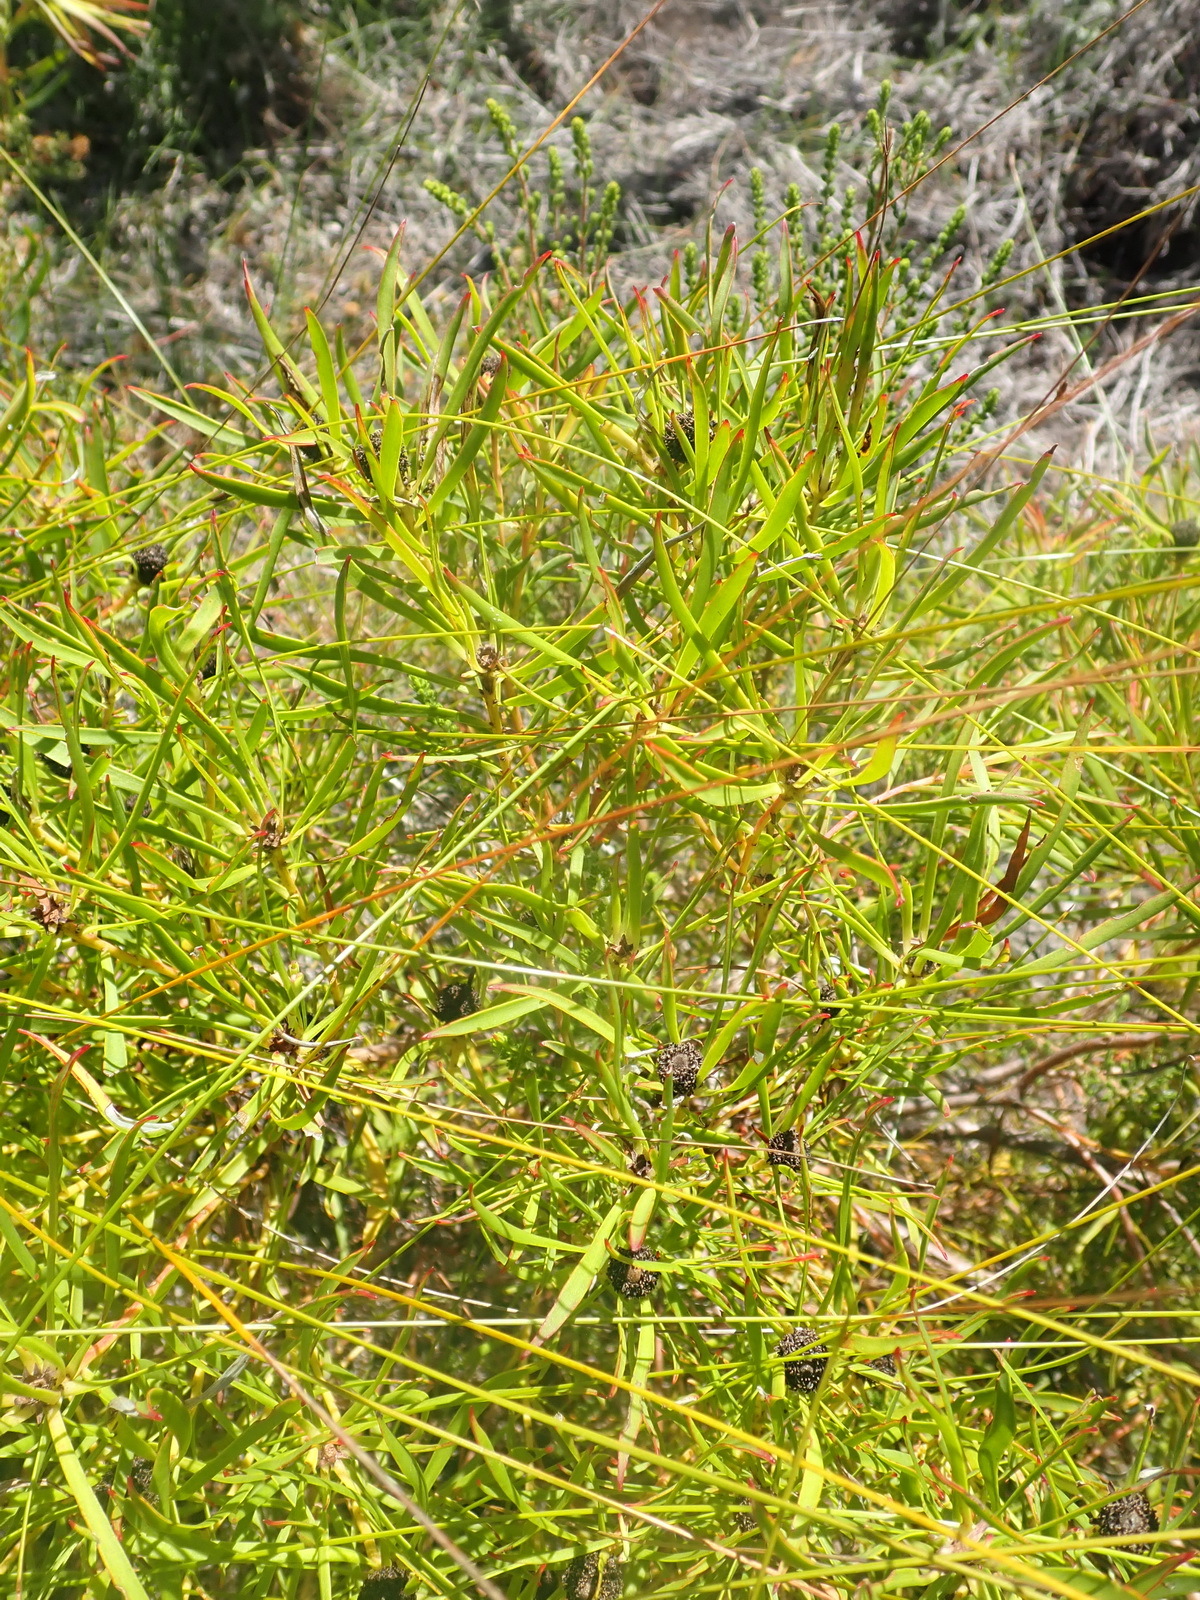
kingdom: Plantae
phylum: Tracheophyta
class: Magnoliopsida
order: Proteales
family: Proteaceae
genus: Leucadendron
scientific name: Leucadendron salignum
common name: Common sunshine conebush
